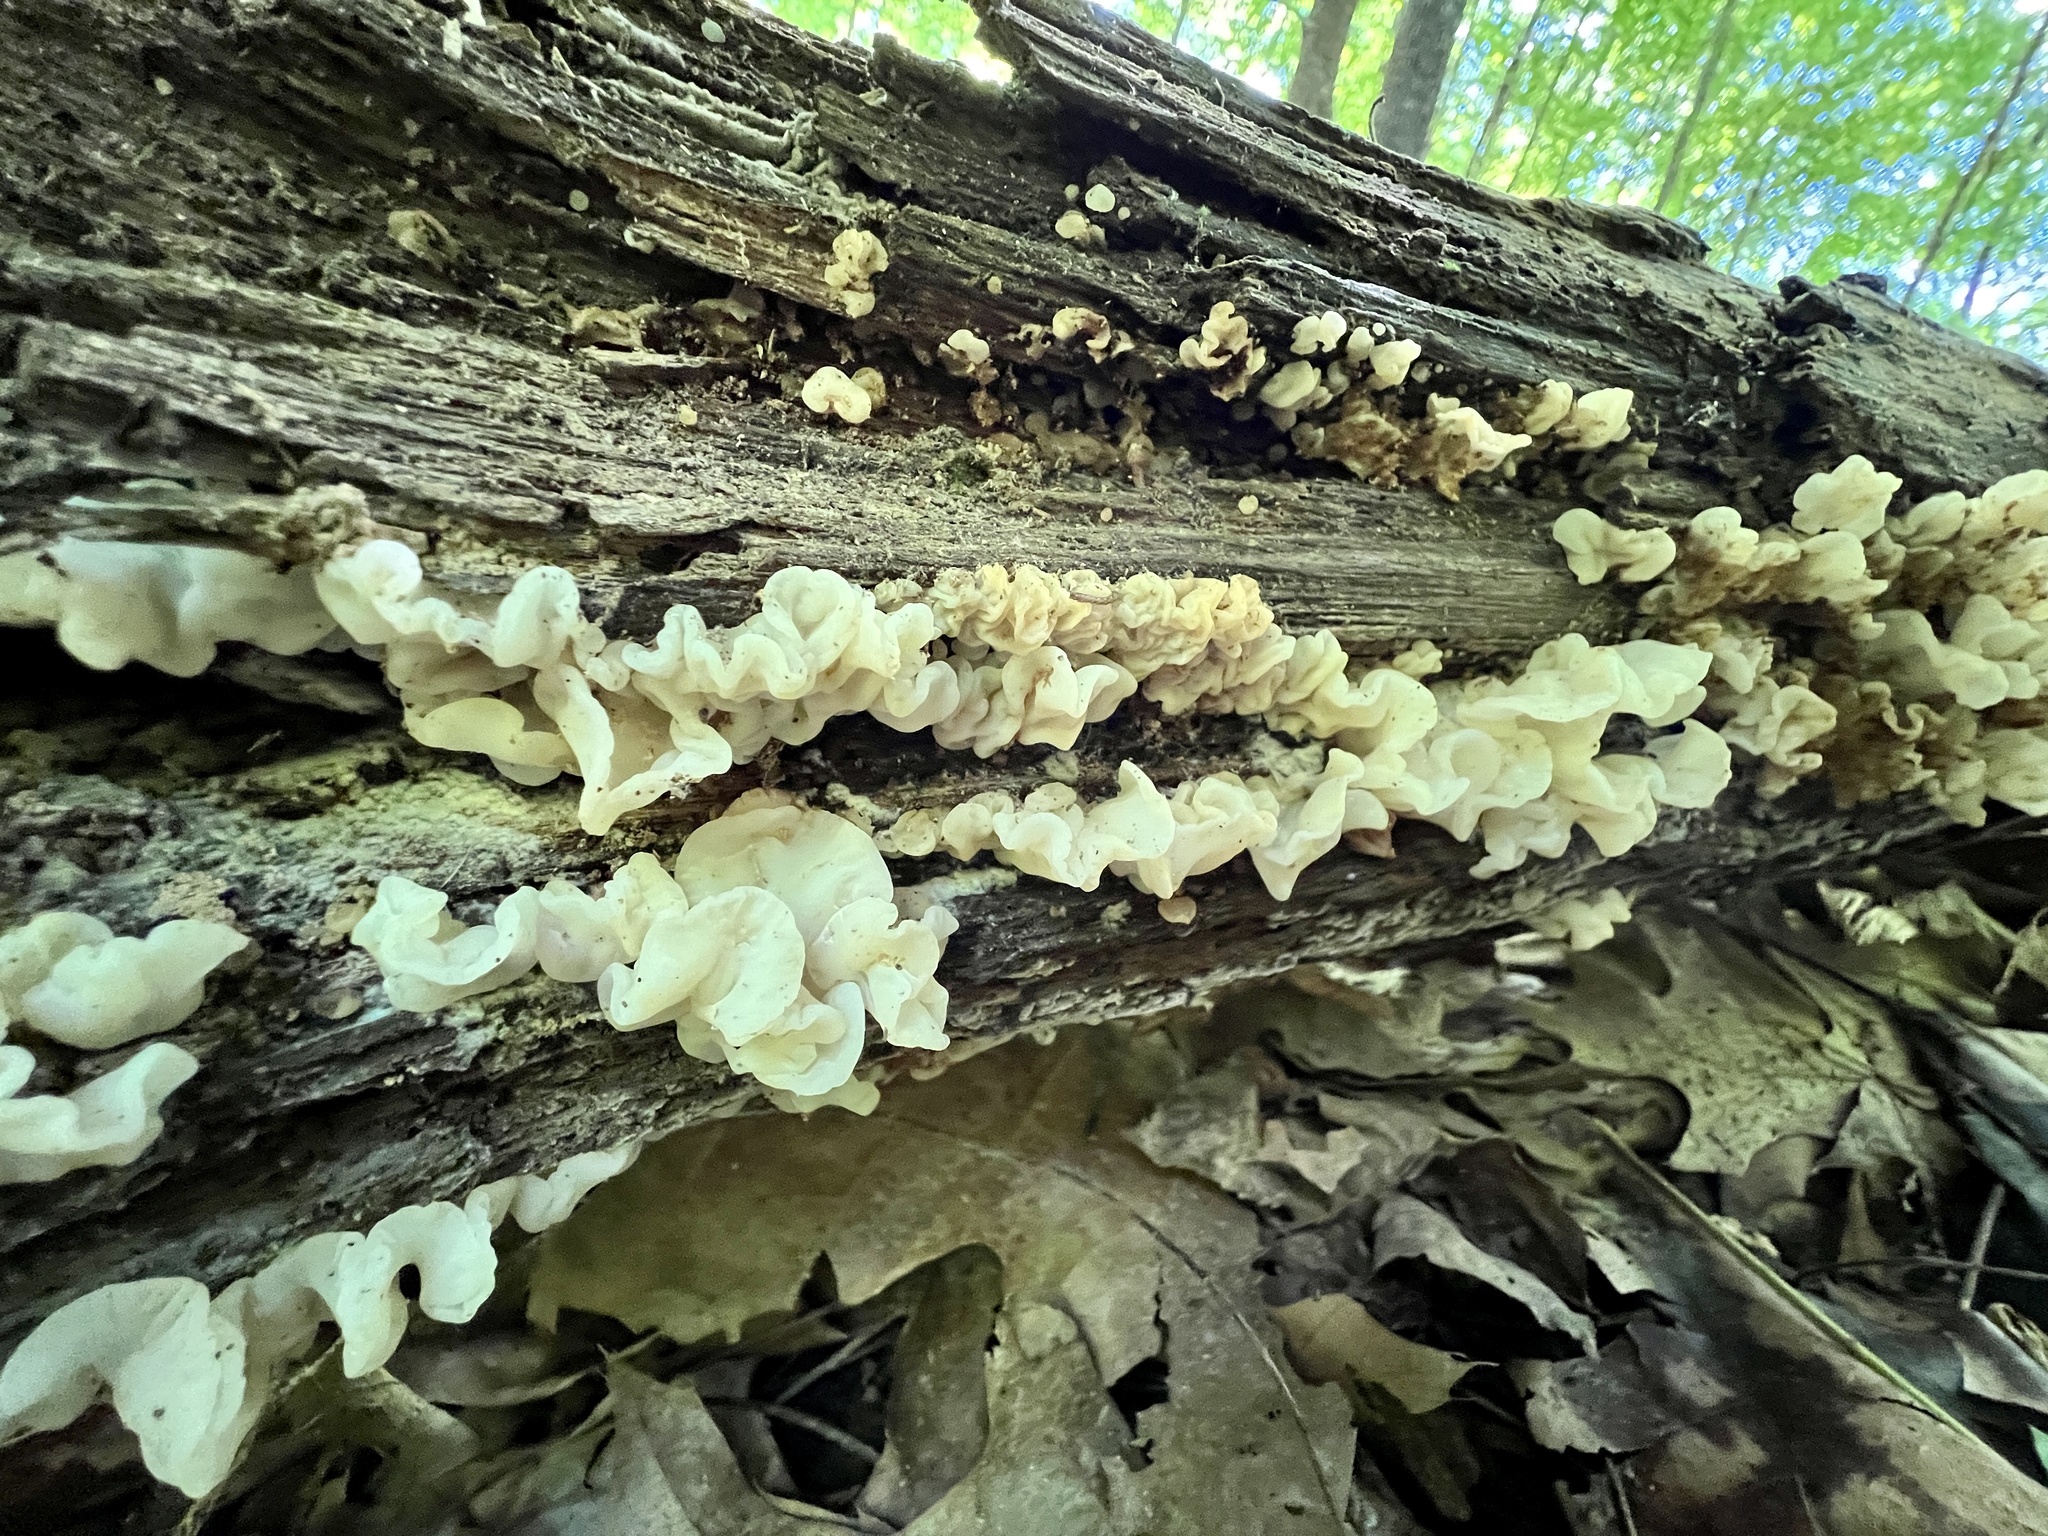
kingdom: Fungi
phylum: Basidiomycota
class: Agaricomycetes
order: Auriculariales
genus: Ductifera
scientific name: Ductifera pululahuana
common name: White jelly fungus
